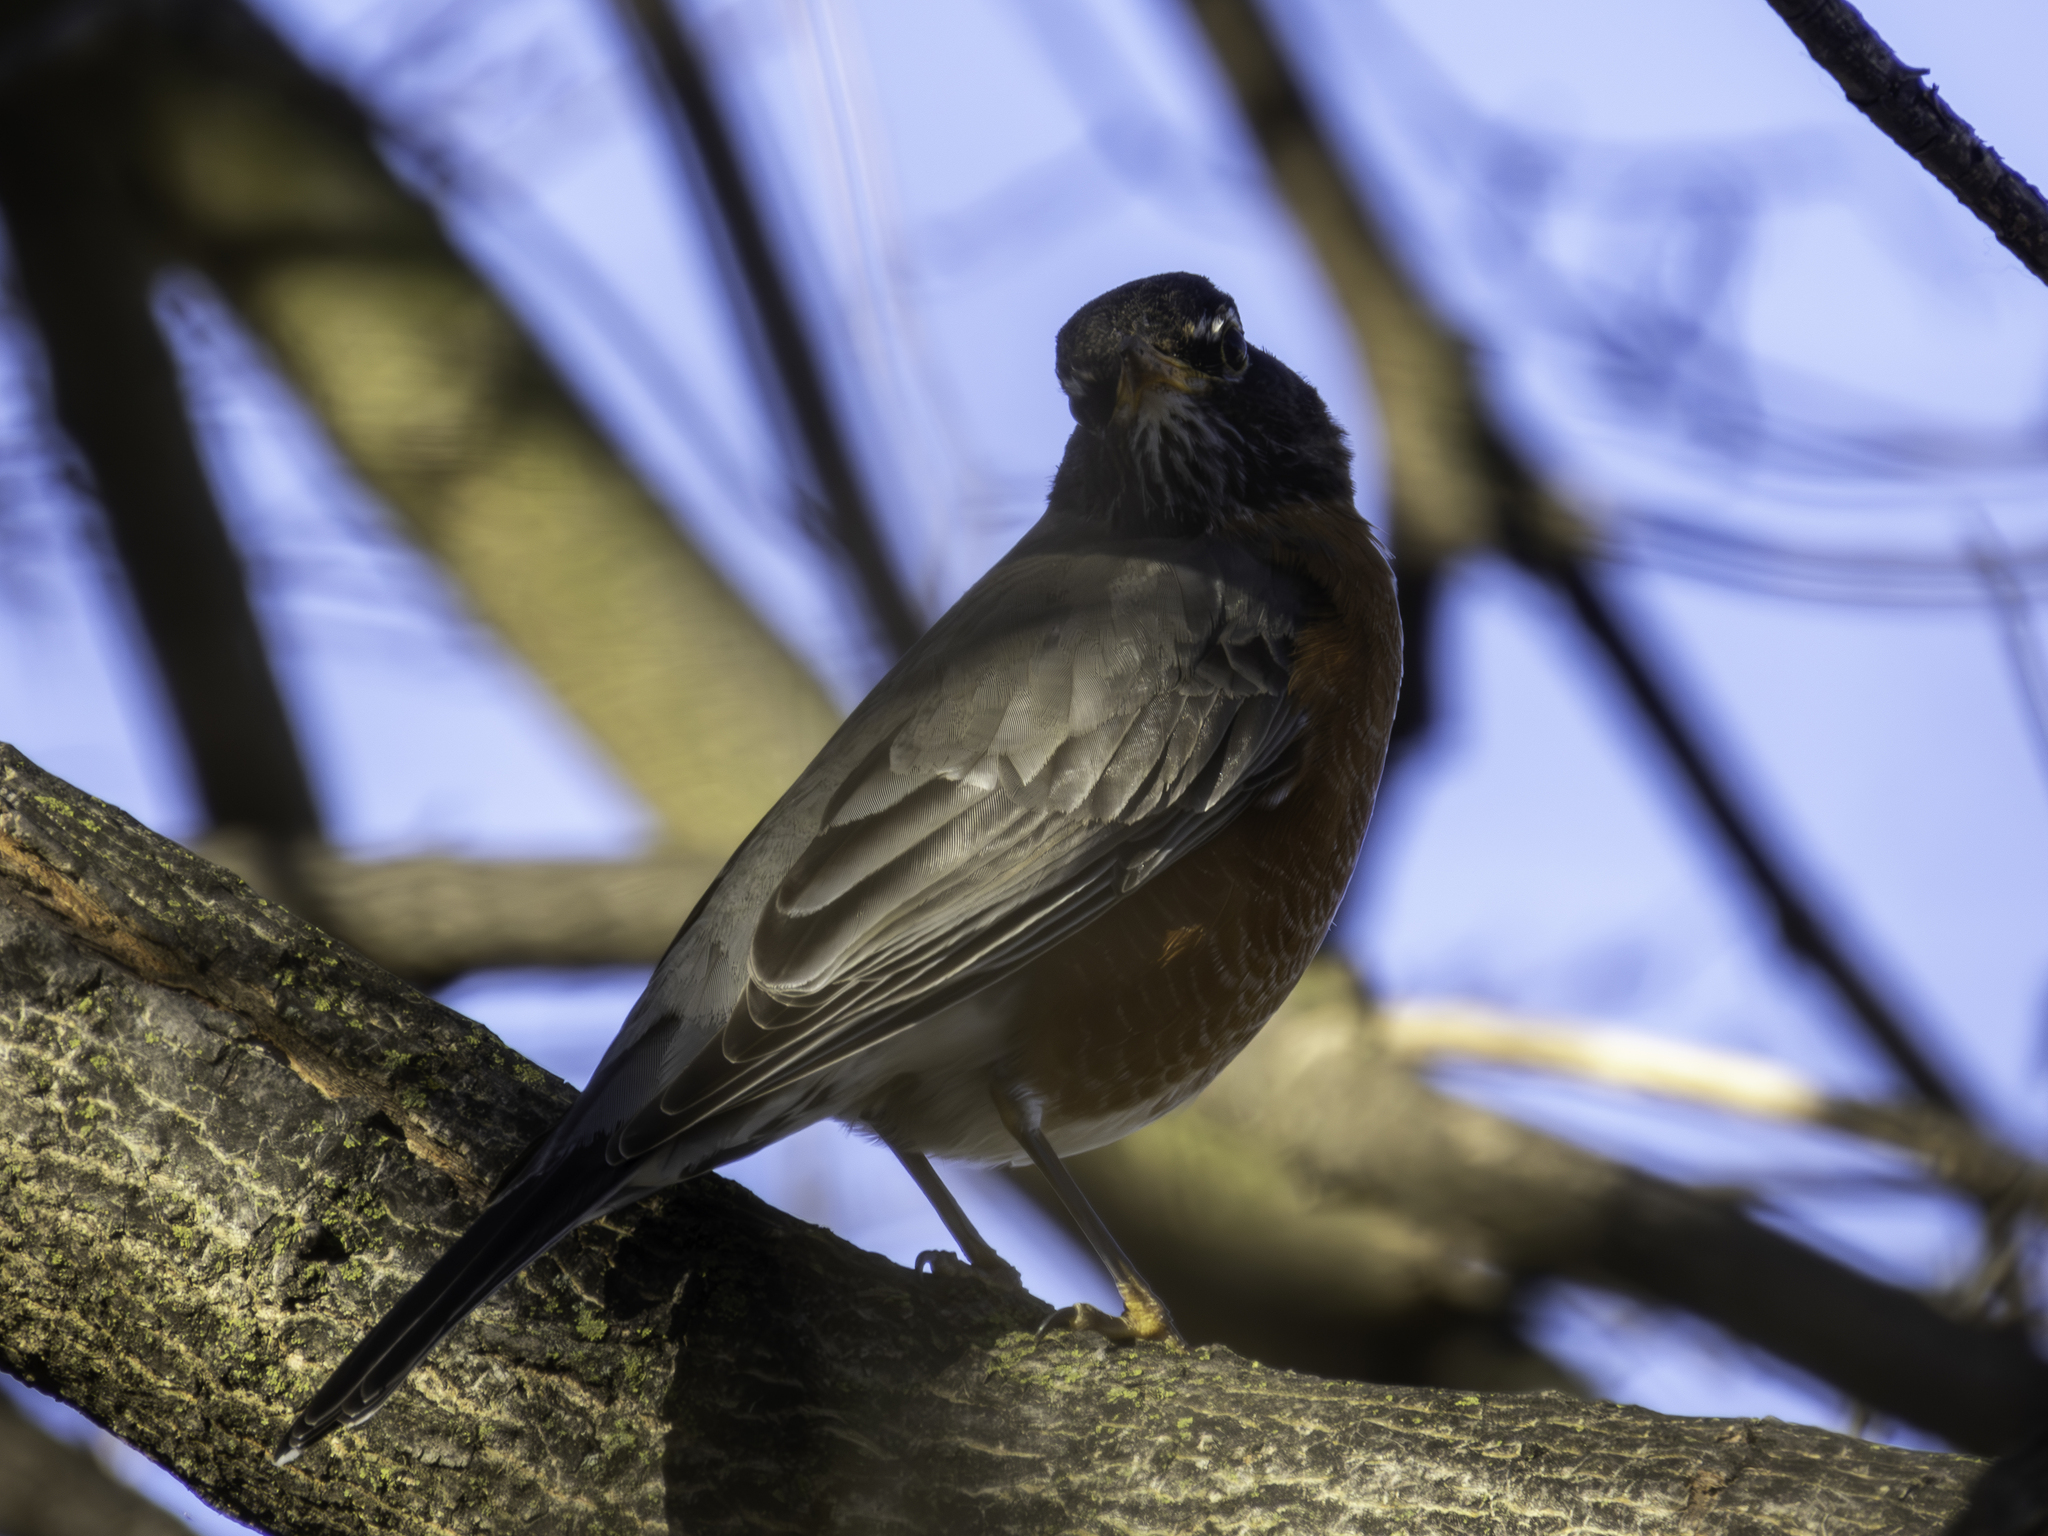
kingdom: Animalia
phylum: Chordata
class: Aves
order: Passeriformes
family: Turdidae
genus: Turdus
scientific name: Turdus migratorius
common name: American robin
